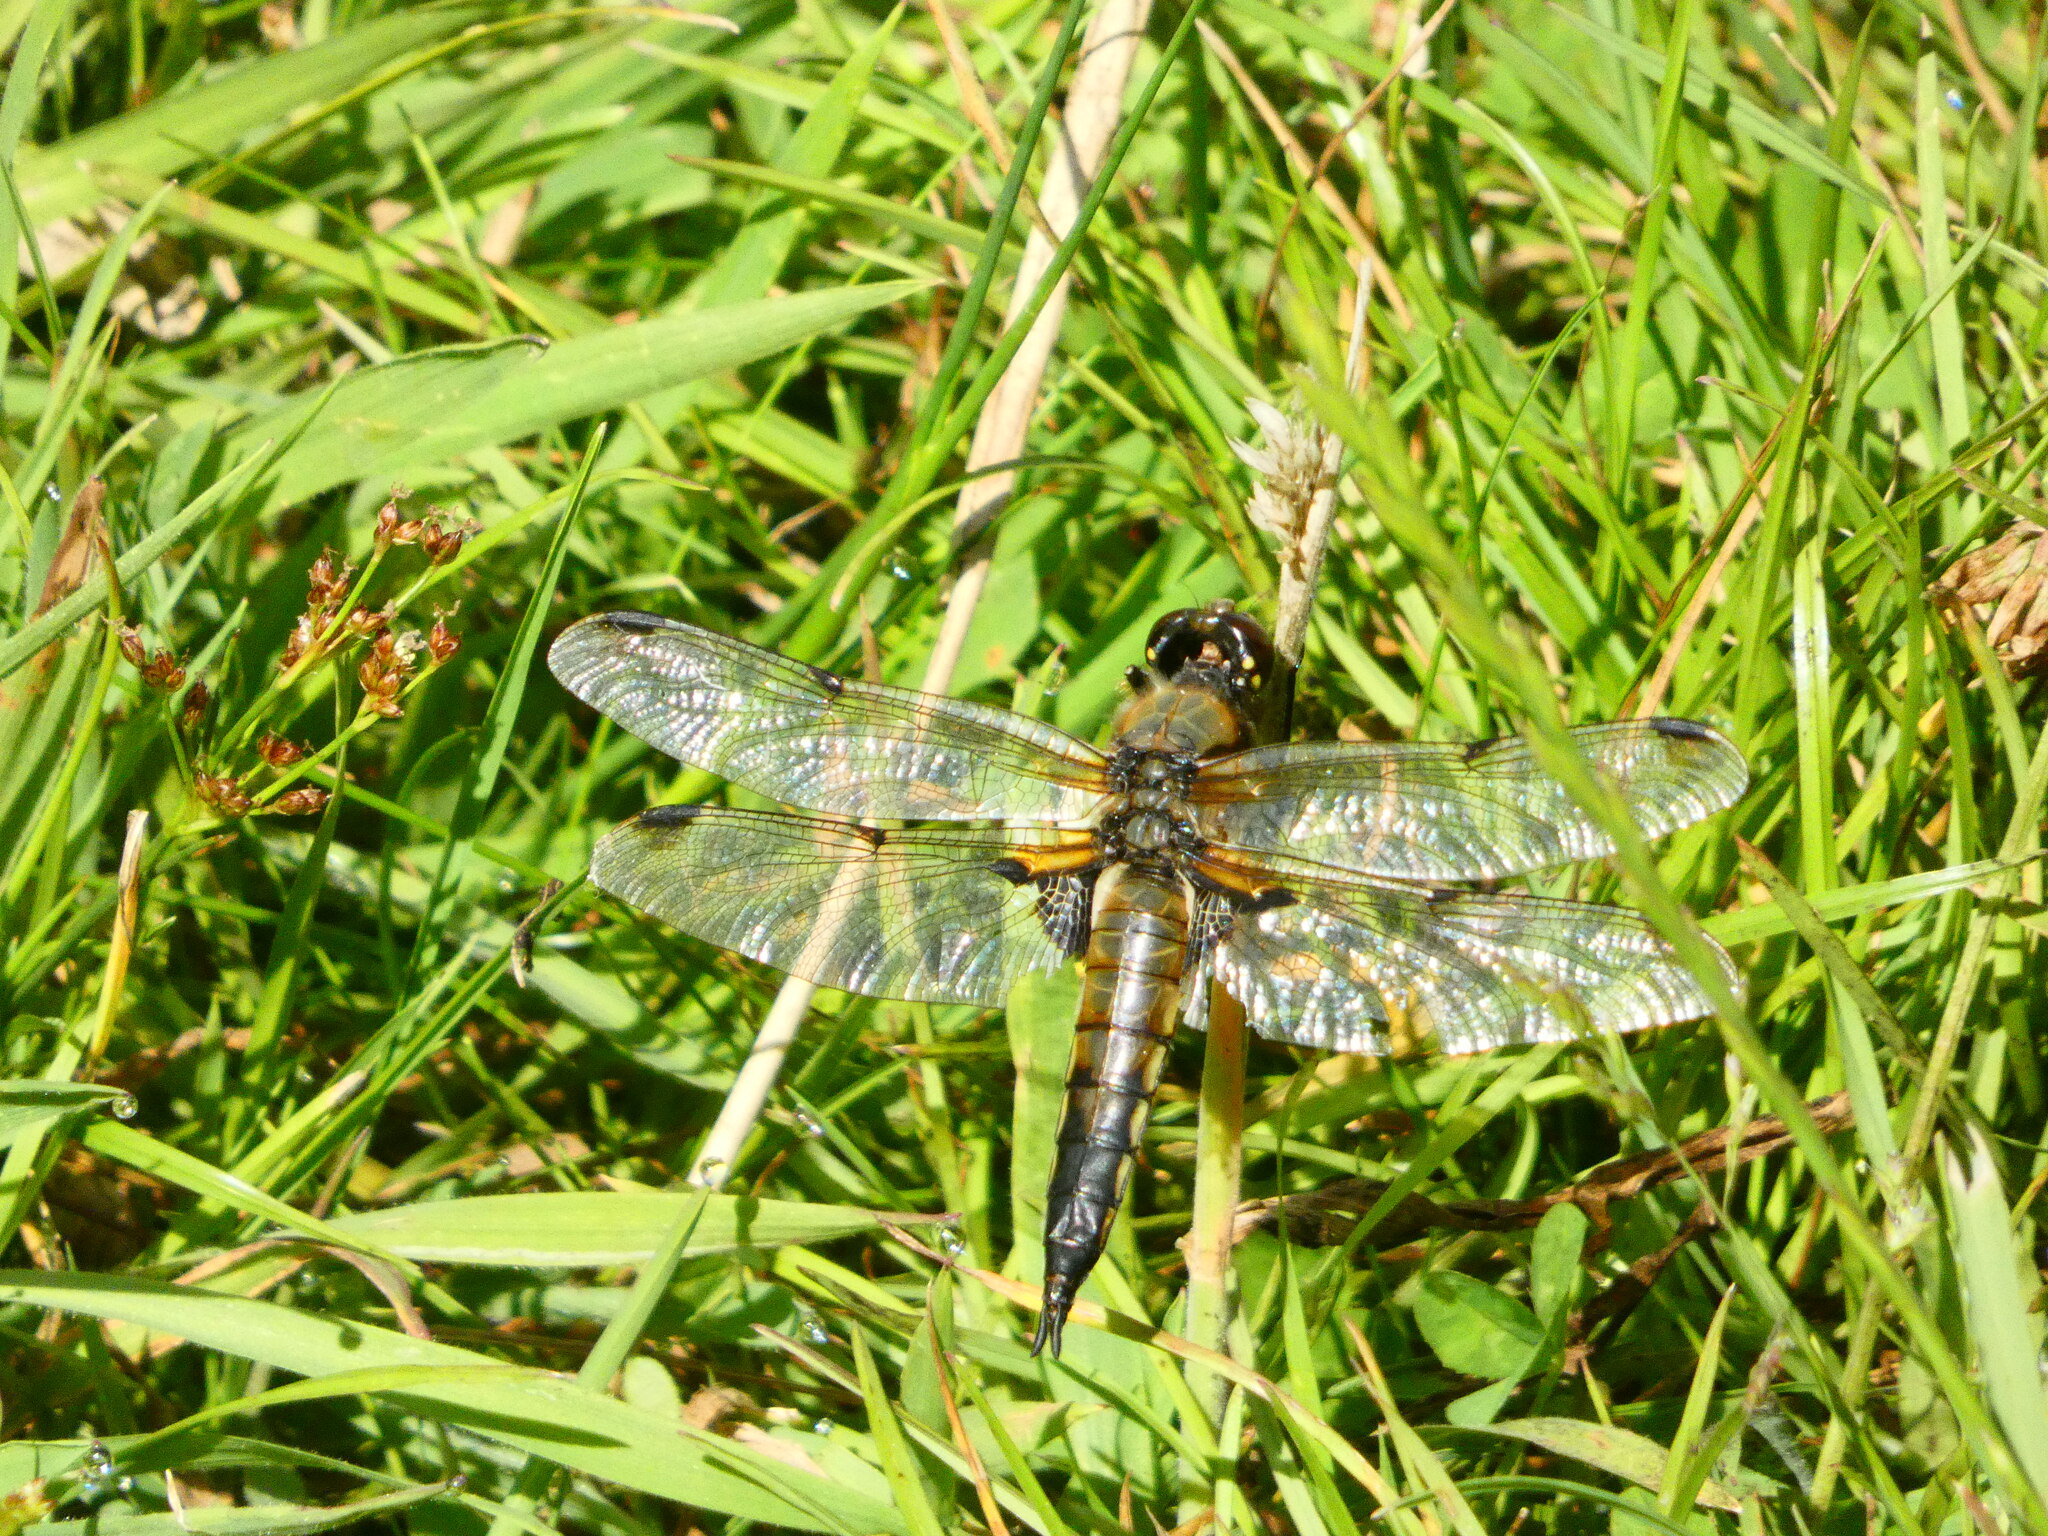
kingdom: Animalia
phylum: Arthropoda
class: Insecta
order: Odonata
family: Libellulidae
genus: Libellula
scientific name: Libellula quadrimaculata
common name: Four-spotted chaser
